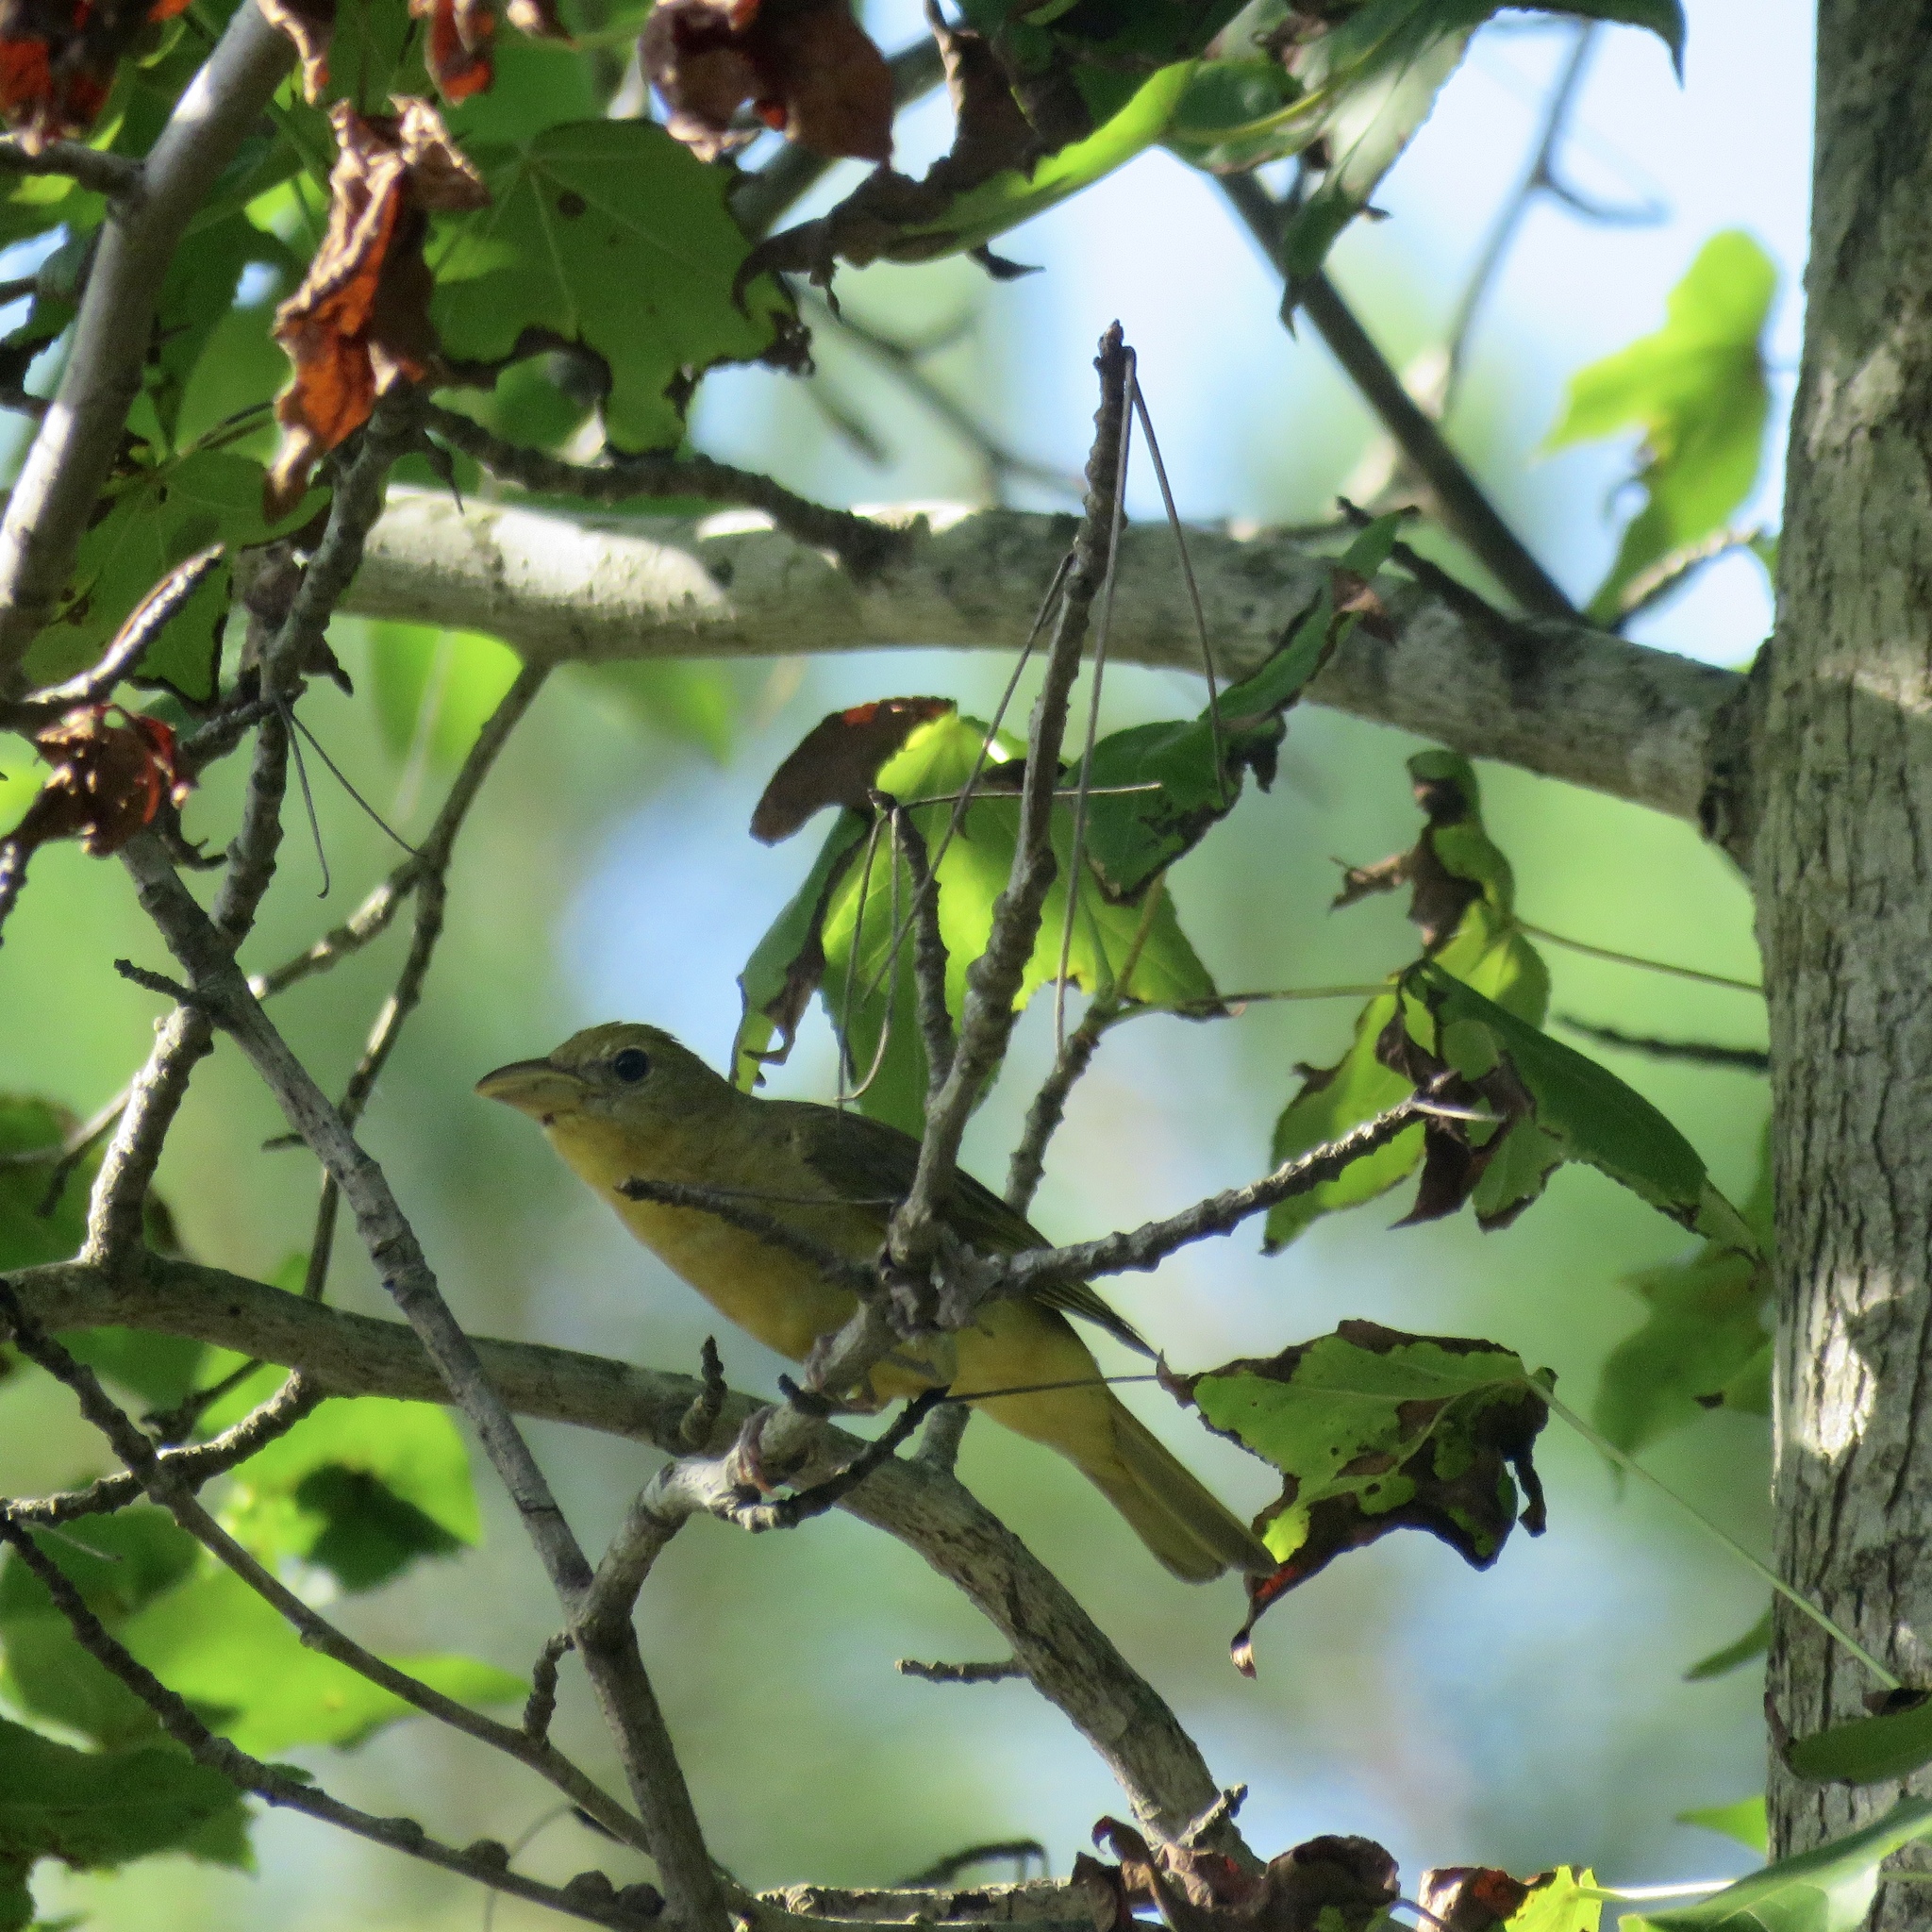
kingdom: Animalia
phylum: Chordata
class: Aves
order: Passeriformes
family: Cardinalidae
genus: Piranga
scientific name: Piranga rubra
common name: Summer tanager
